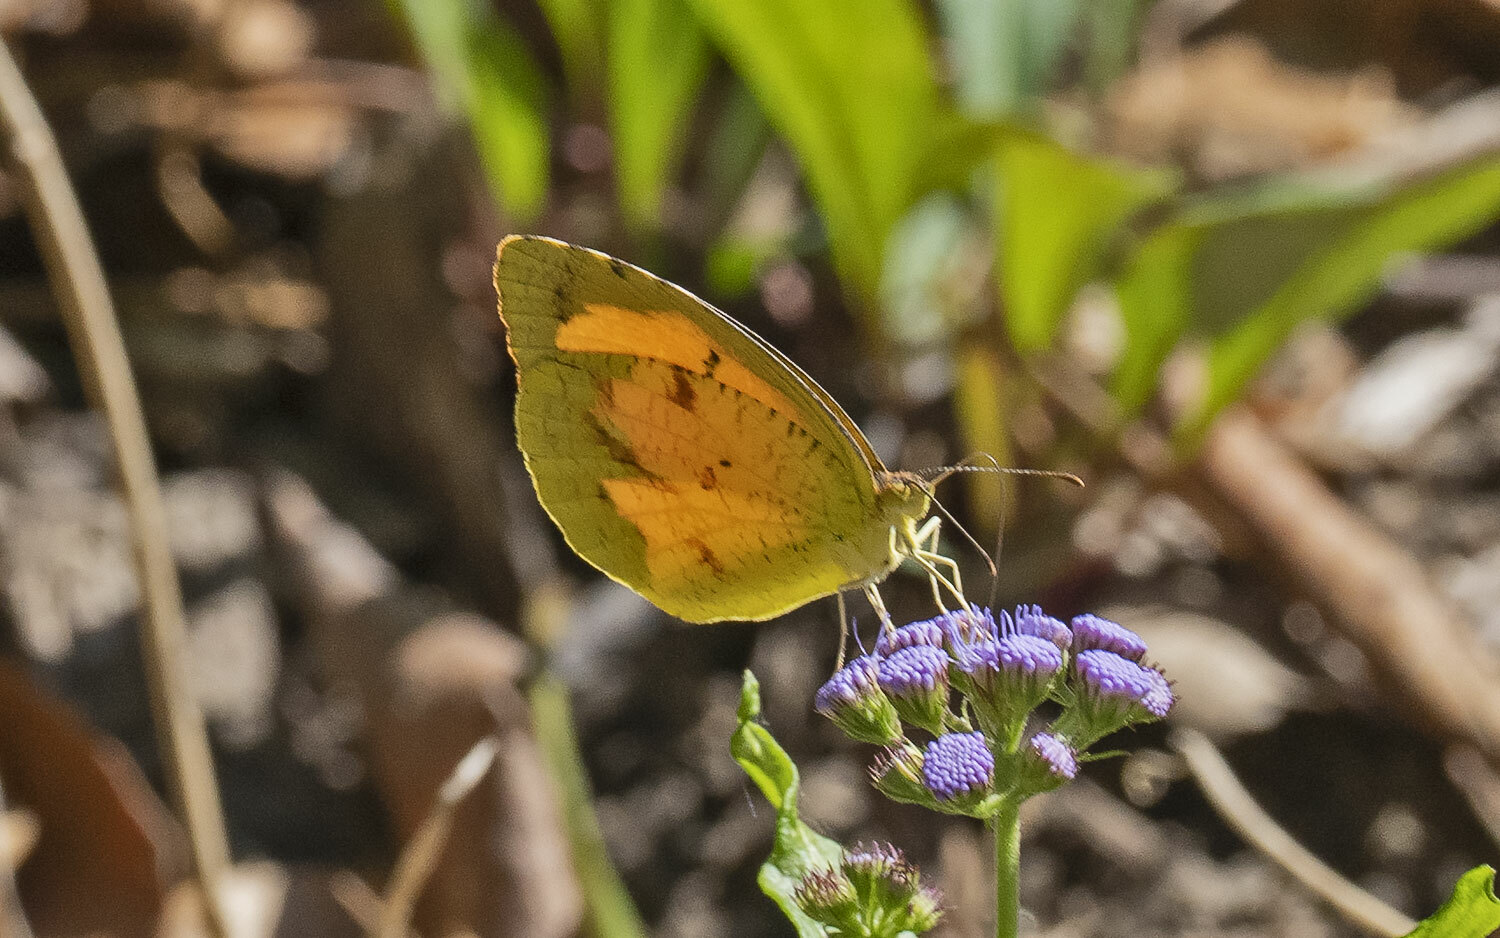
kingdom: Animalia
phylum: Arthropoda
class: Insecta
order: Lepidoptera
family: Pieridae
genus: Abaeis
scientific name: Abaeis nicippe
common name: Sleepy orange
